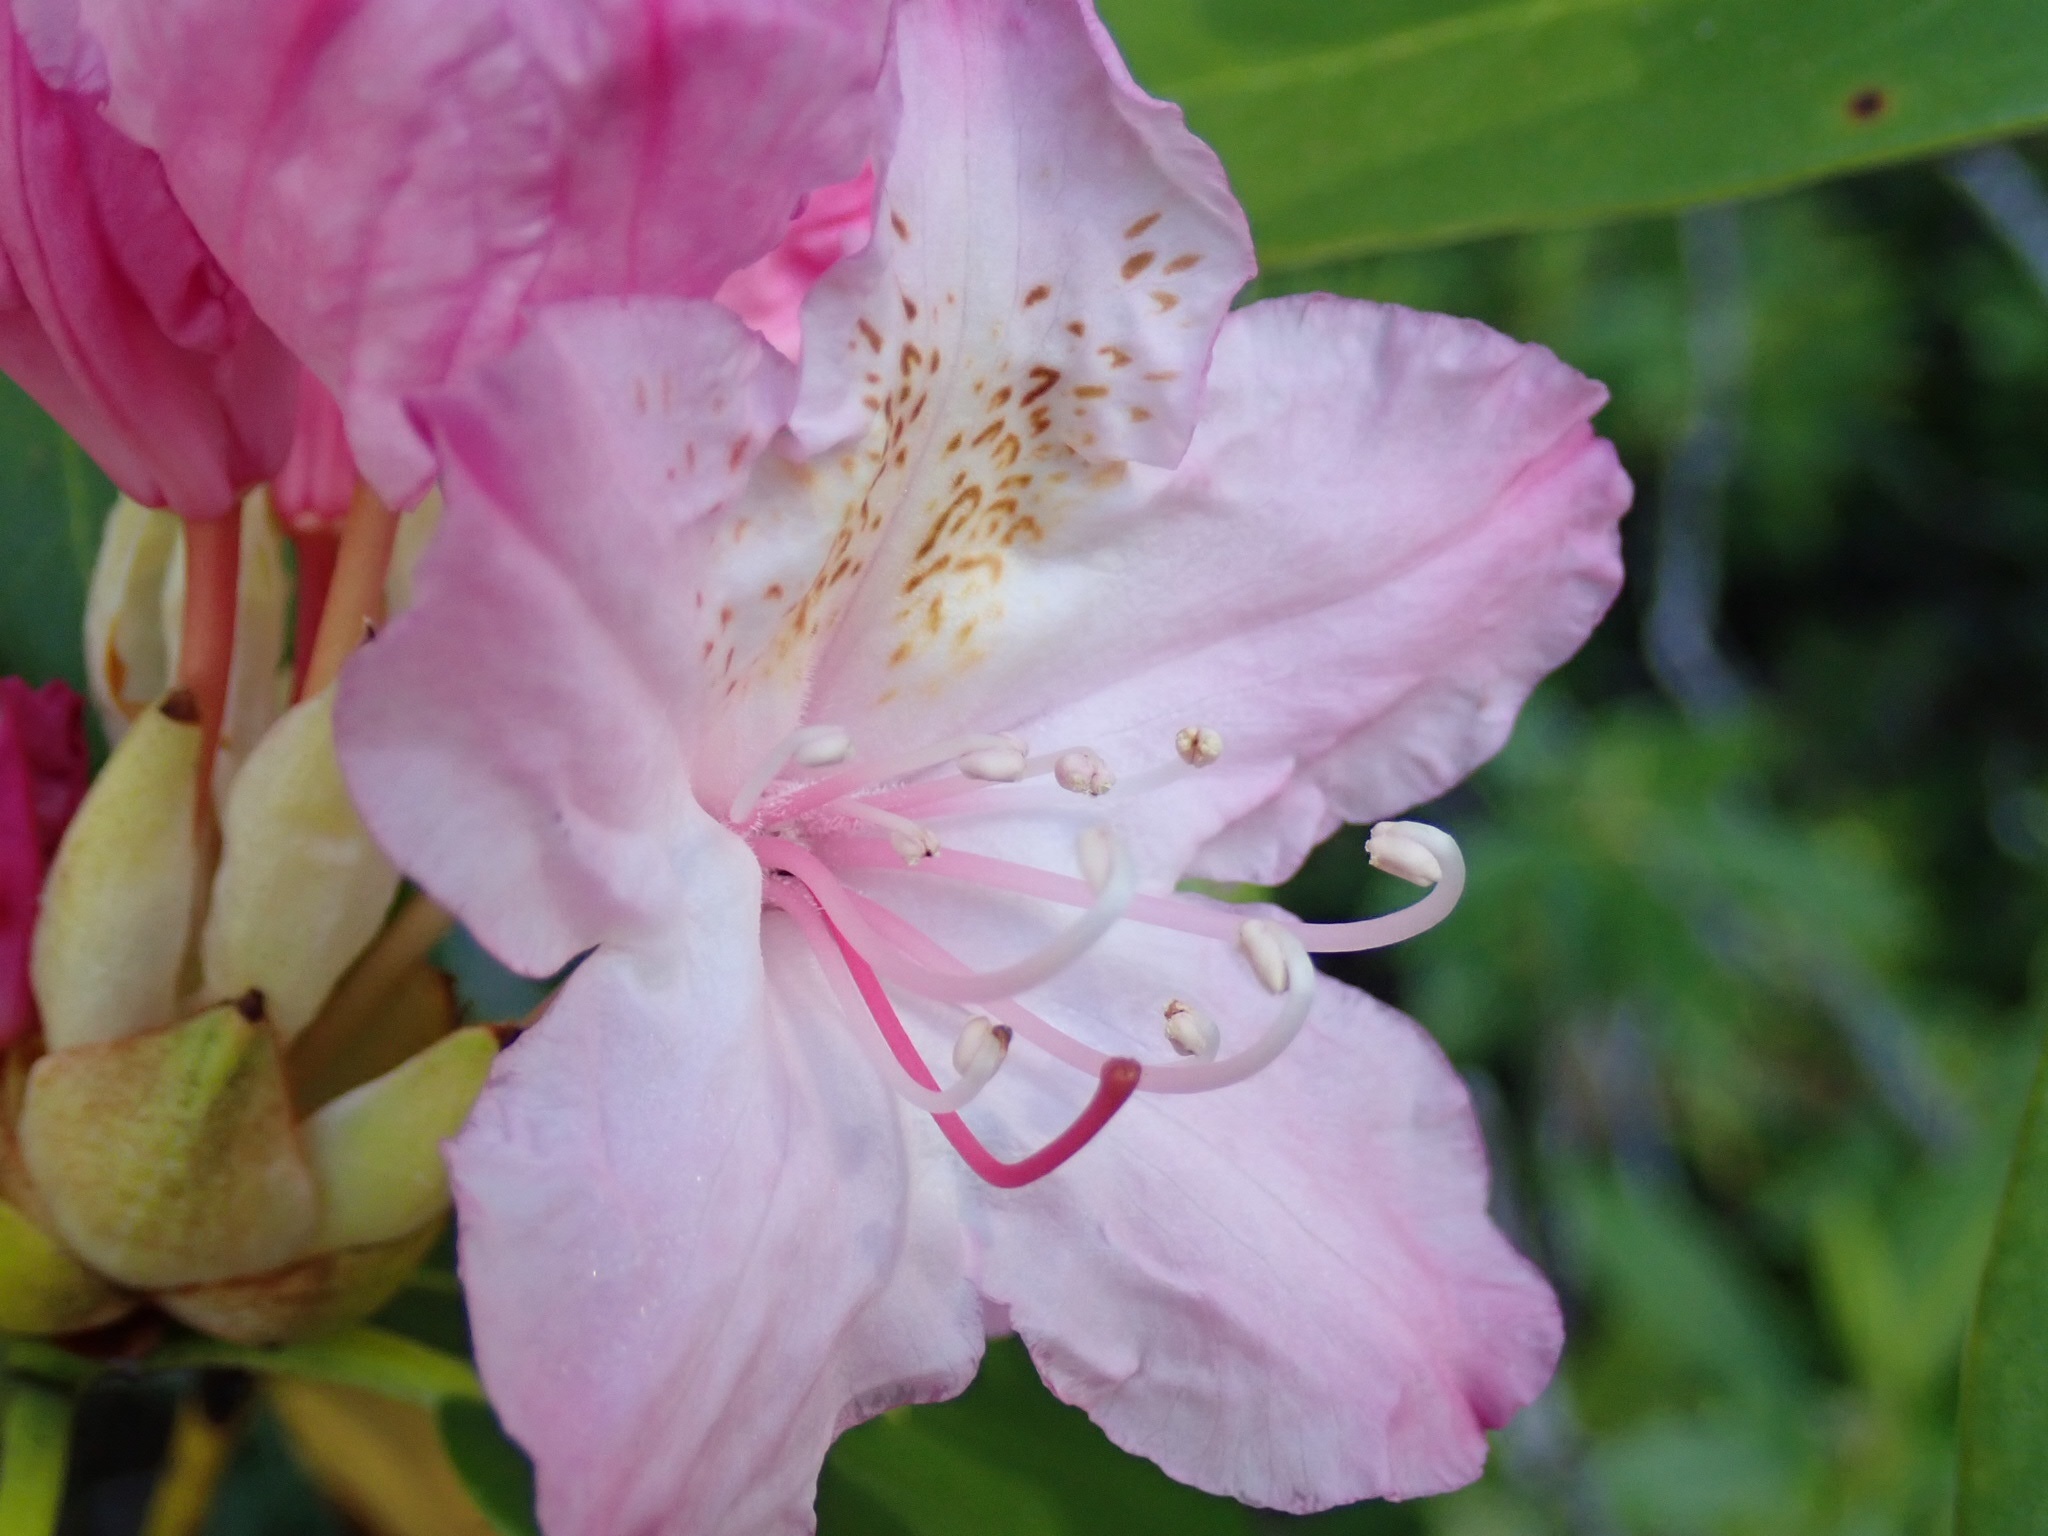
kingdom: Plantae
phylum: Tracheophyta
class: Magnoliopsida
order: Ericales
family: Ericaceae
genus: Rhododendron
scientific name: Rhododendron macrophyllum
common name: California rose bay
